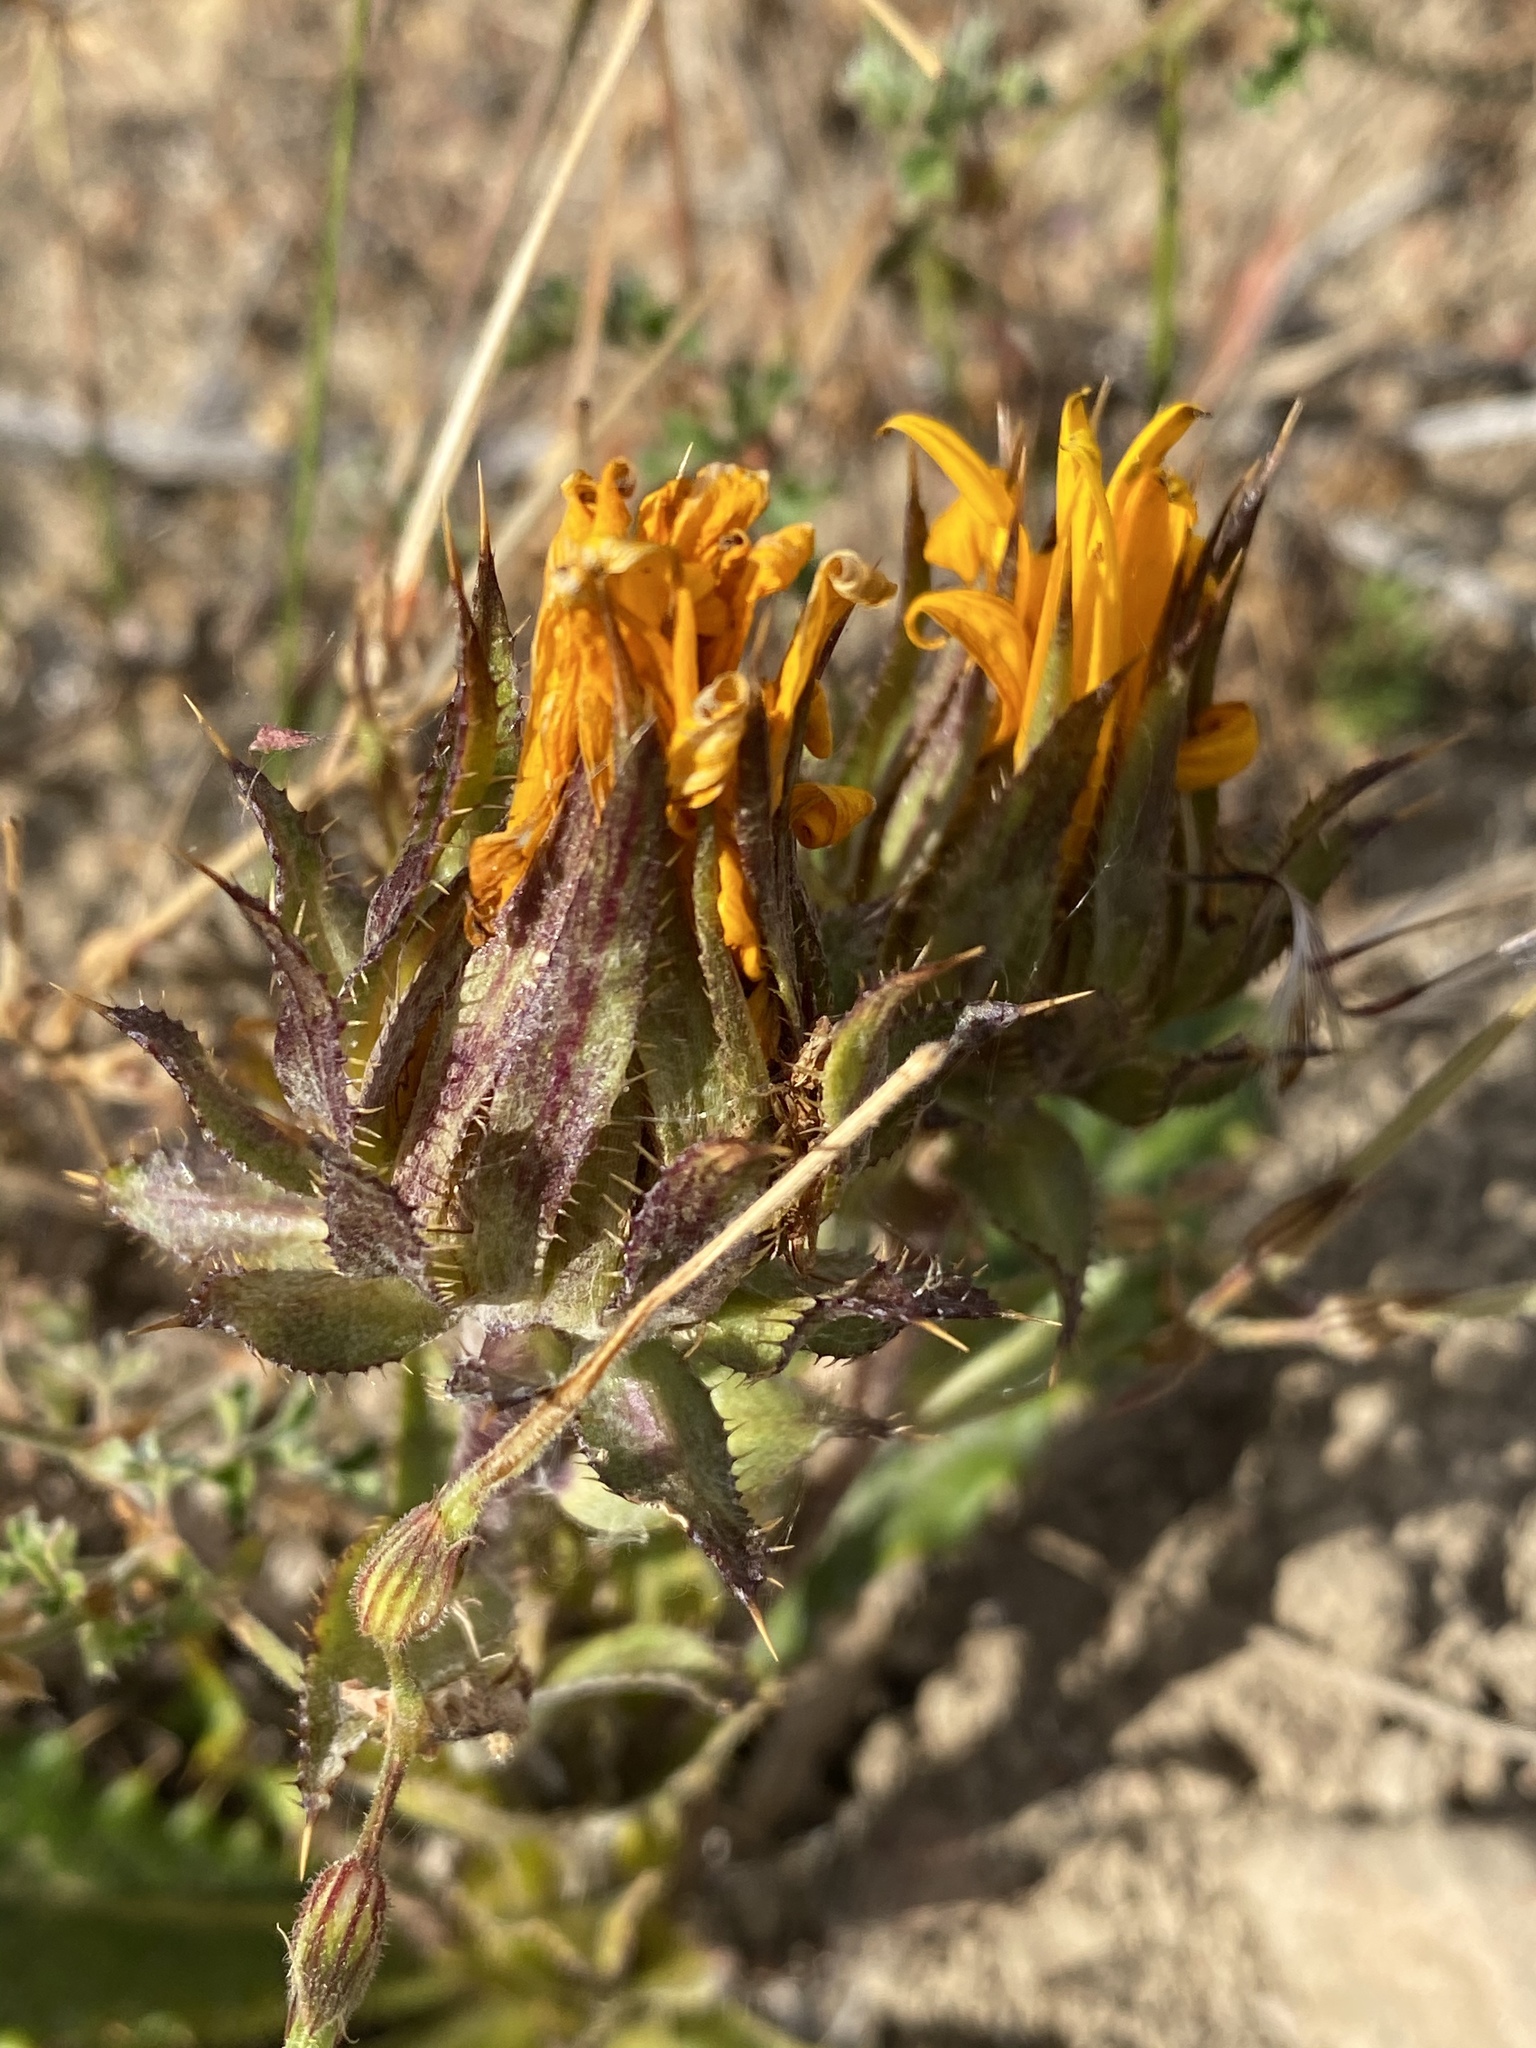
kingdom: Plantae
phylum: Tracheophyta
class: Magnoliopsida
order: Asterales
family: Asteraceae
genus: Berkheya
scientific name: Berkheya armata
